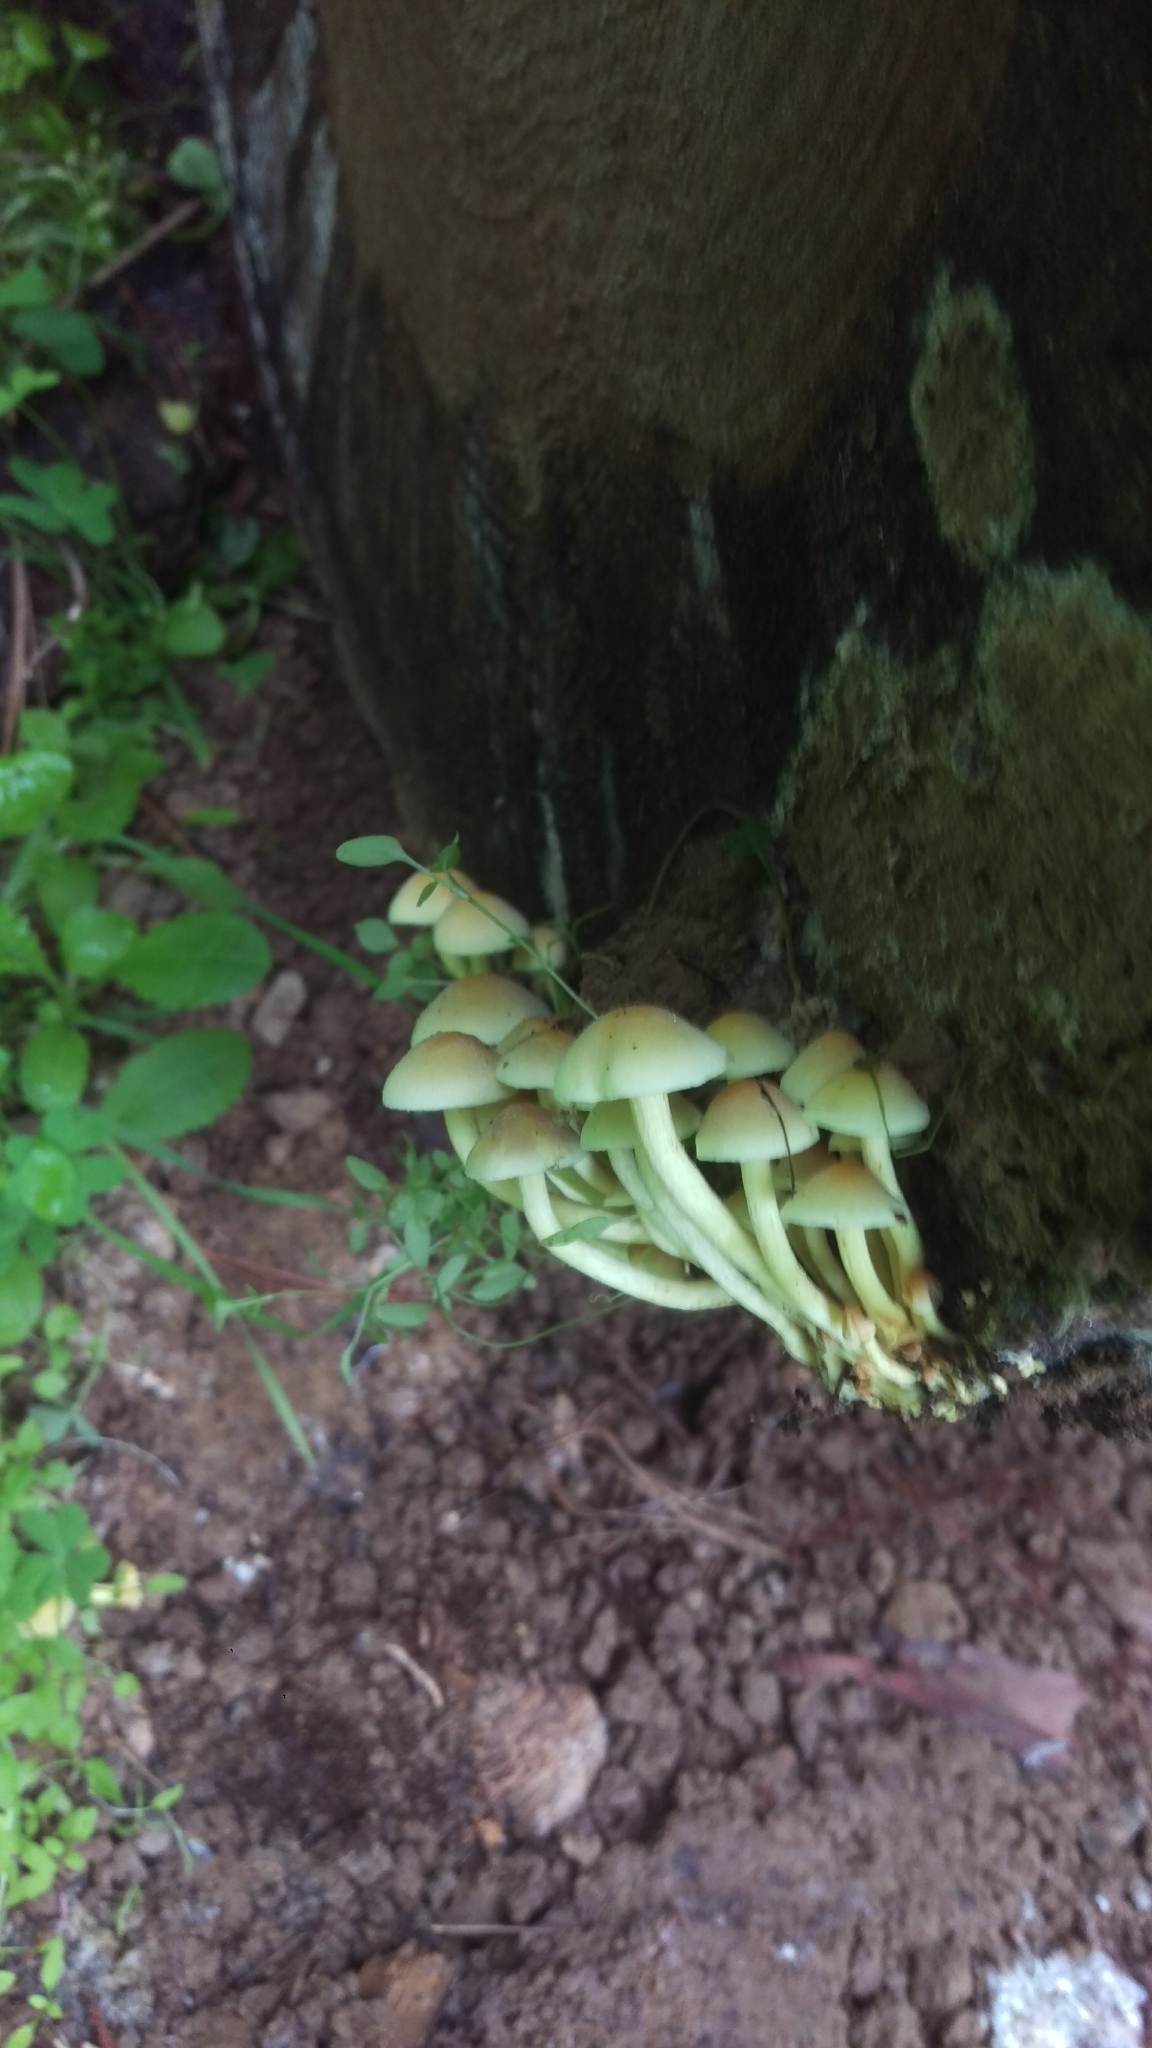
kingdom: Fungi
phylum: Basidiomycota
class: Agaricomycetes
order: Agaricales
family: Strophariaceae
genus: Hypholoma
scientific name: Hypholoma fasciculare
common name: Sulphur tuft
